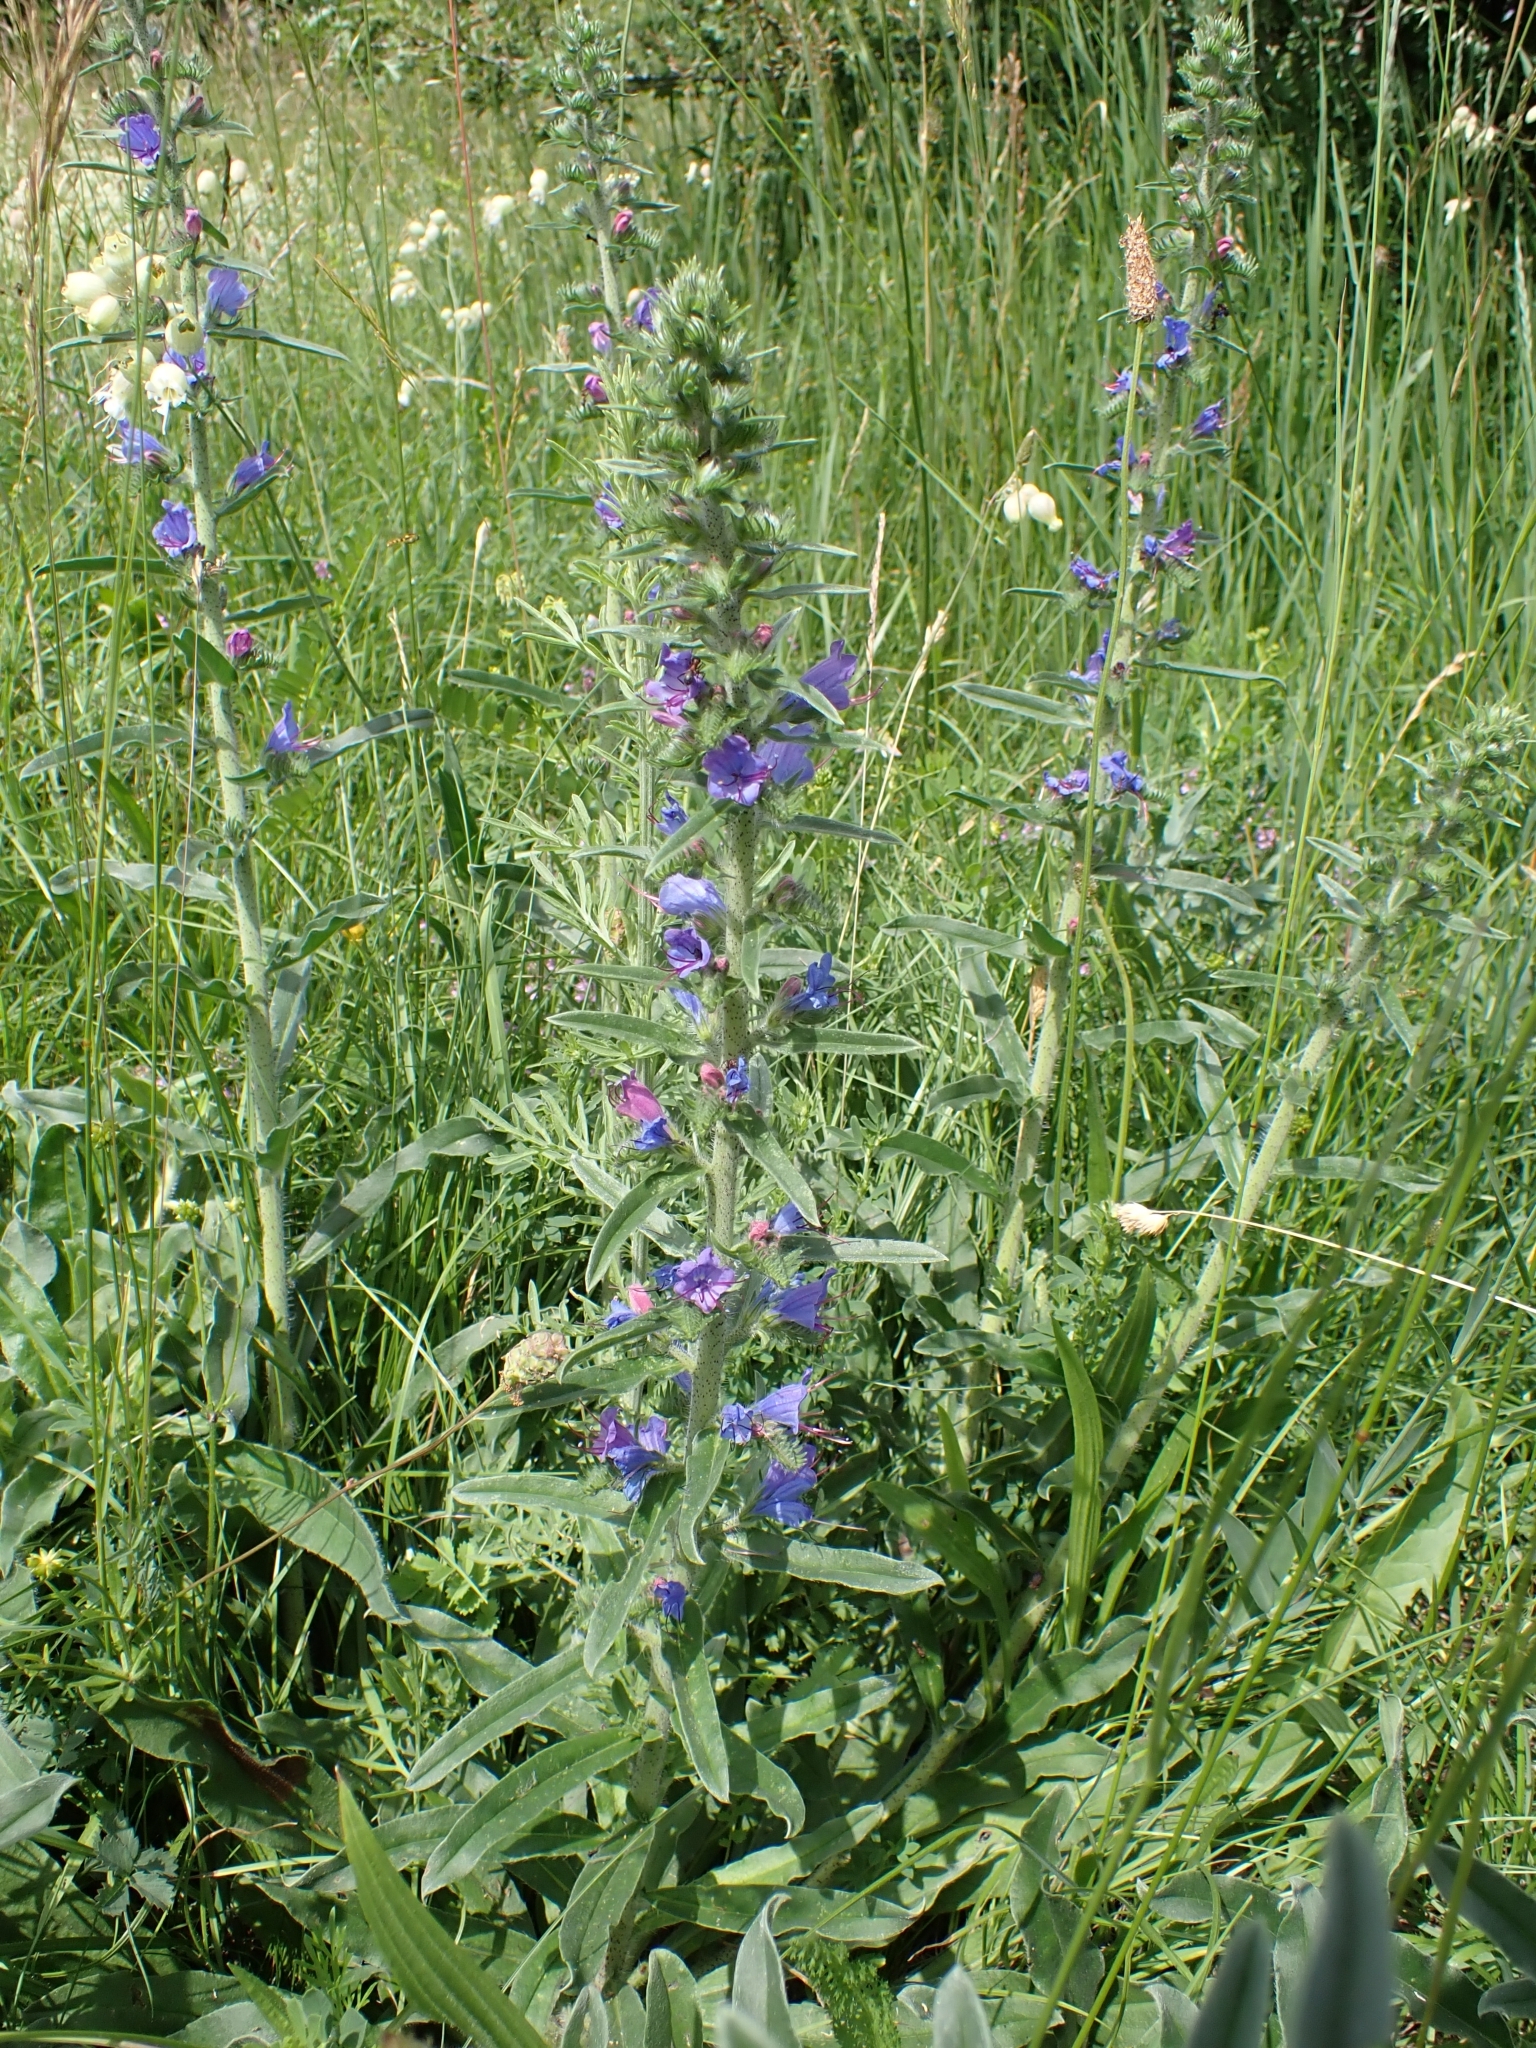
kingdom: Plantae
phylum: Tracheophyta
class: Magnoliopsida
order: Boraginales
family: Boraginaceae
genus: Echium
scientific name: Echium vulgare
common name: Common viper's bugloss
